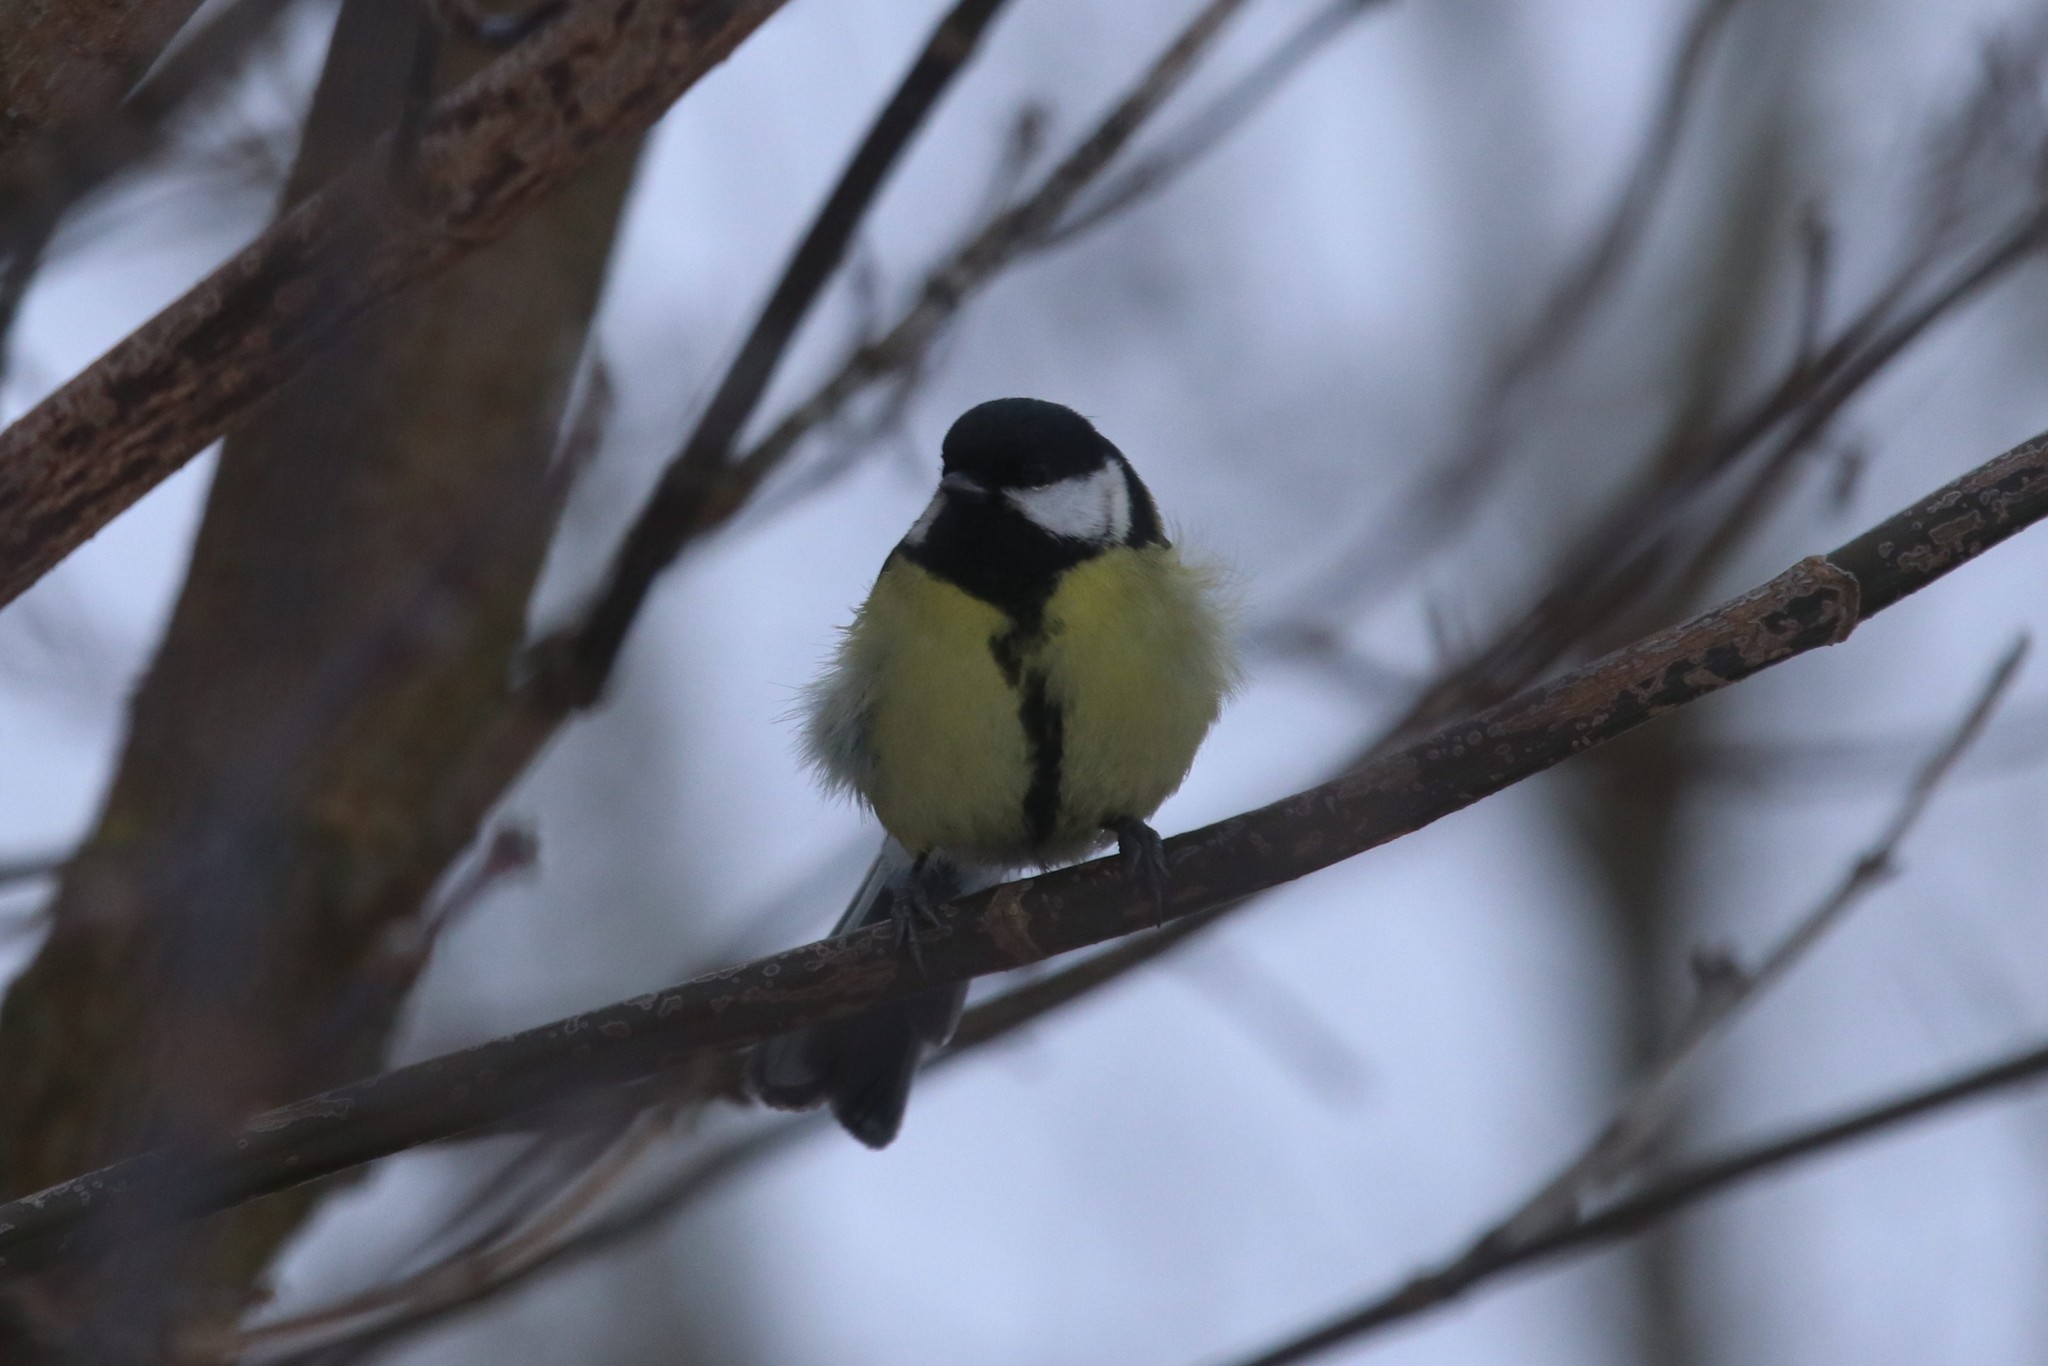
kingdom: Animalia
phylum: Chordata
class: Aves
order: Passeriformes
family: Paridae
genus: Parus
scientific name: Parus major
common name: Great tit
